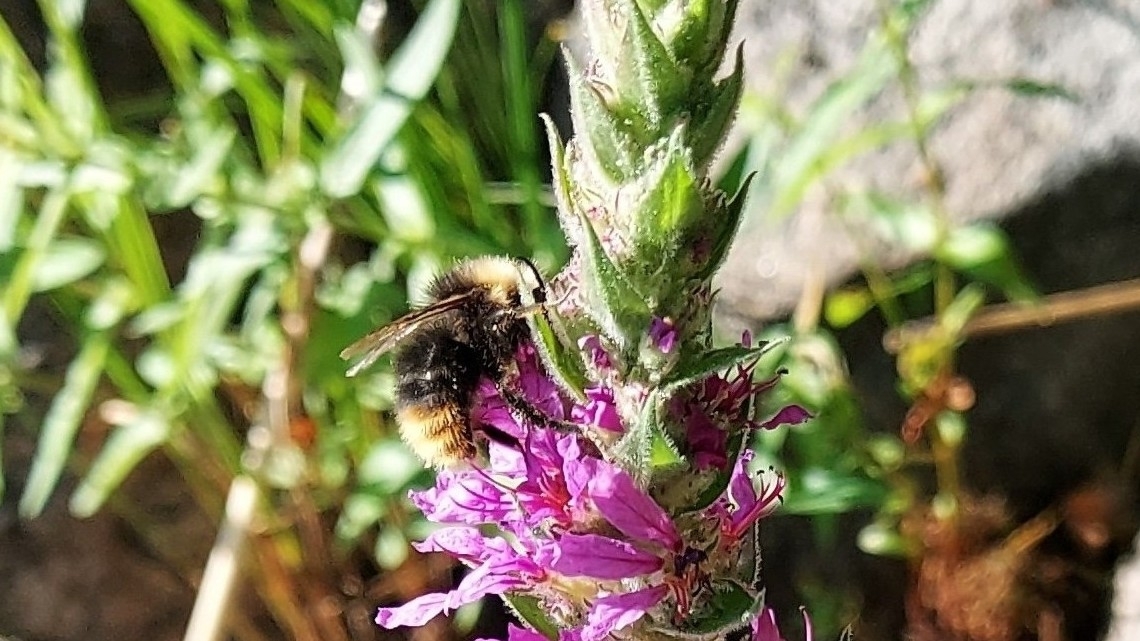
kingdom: Animalia
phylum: Arthropoda
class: Insecta
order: Hymenoptera
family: Apidae
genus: Bombus
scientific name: Bombus pratorum
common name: Early humble-bee
